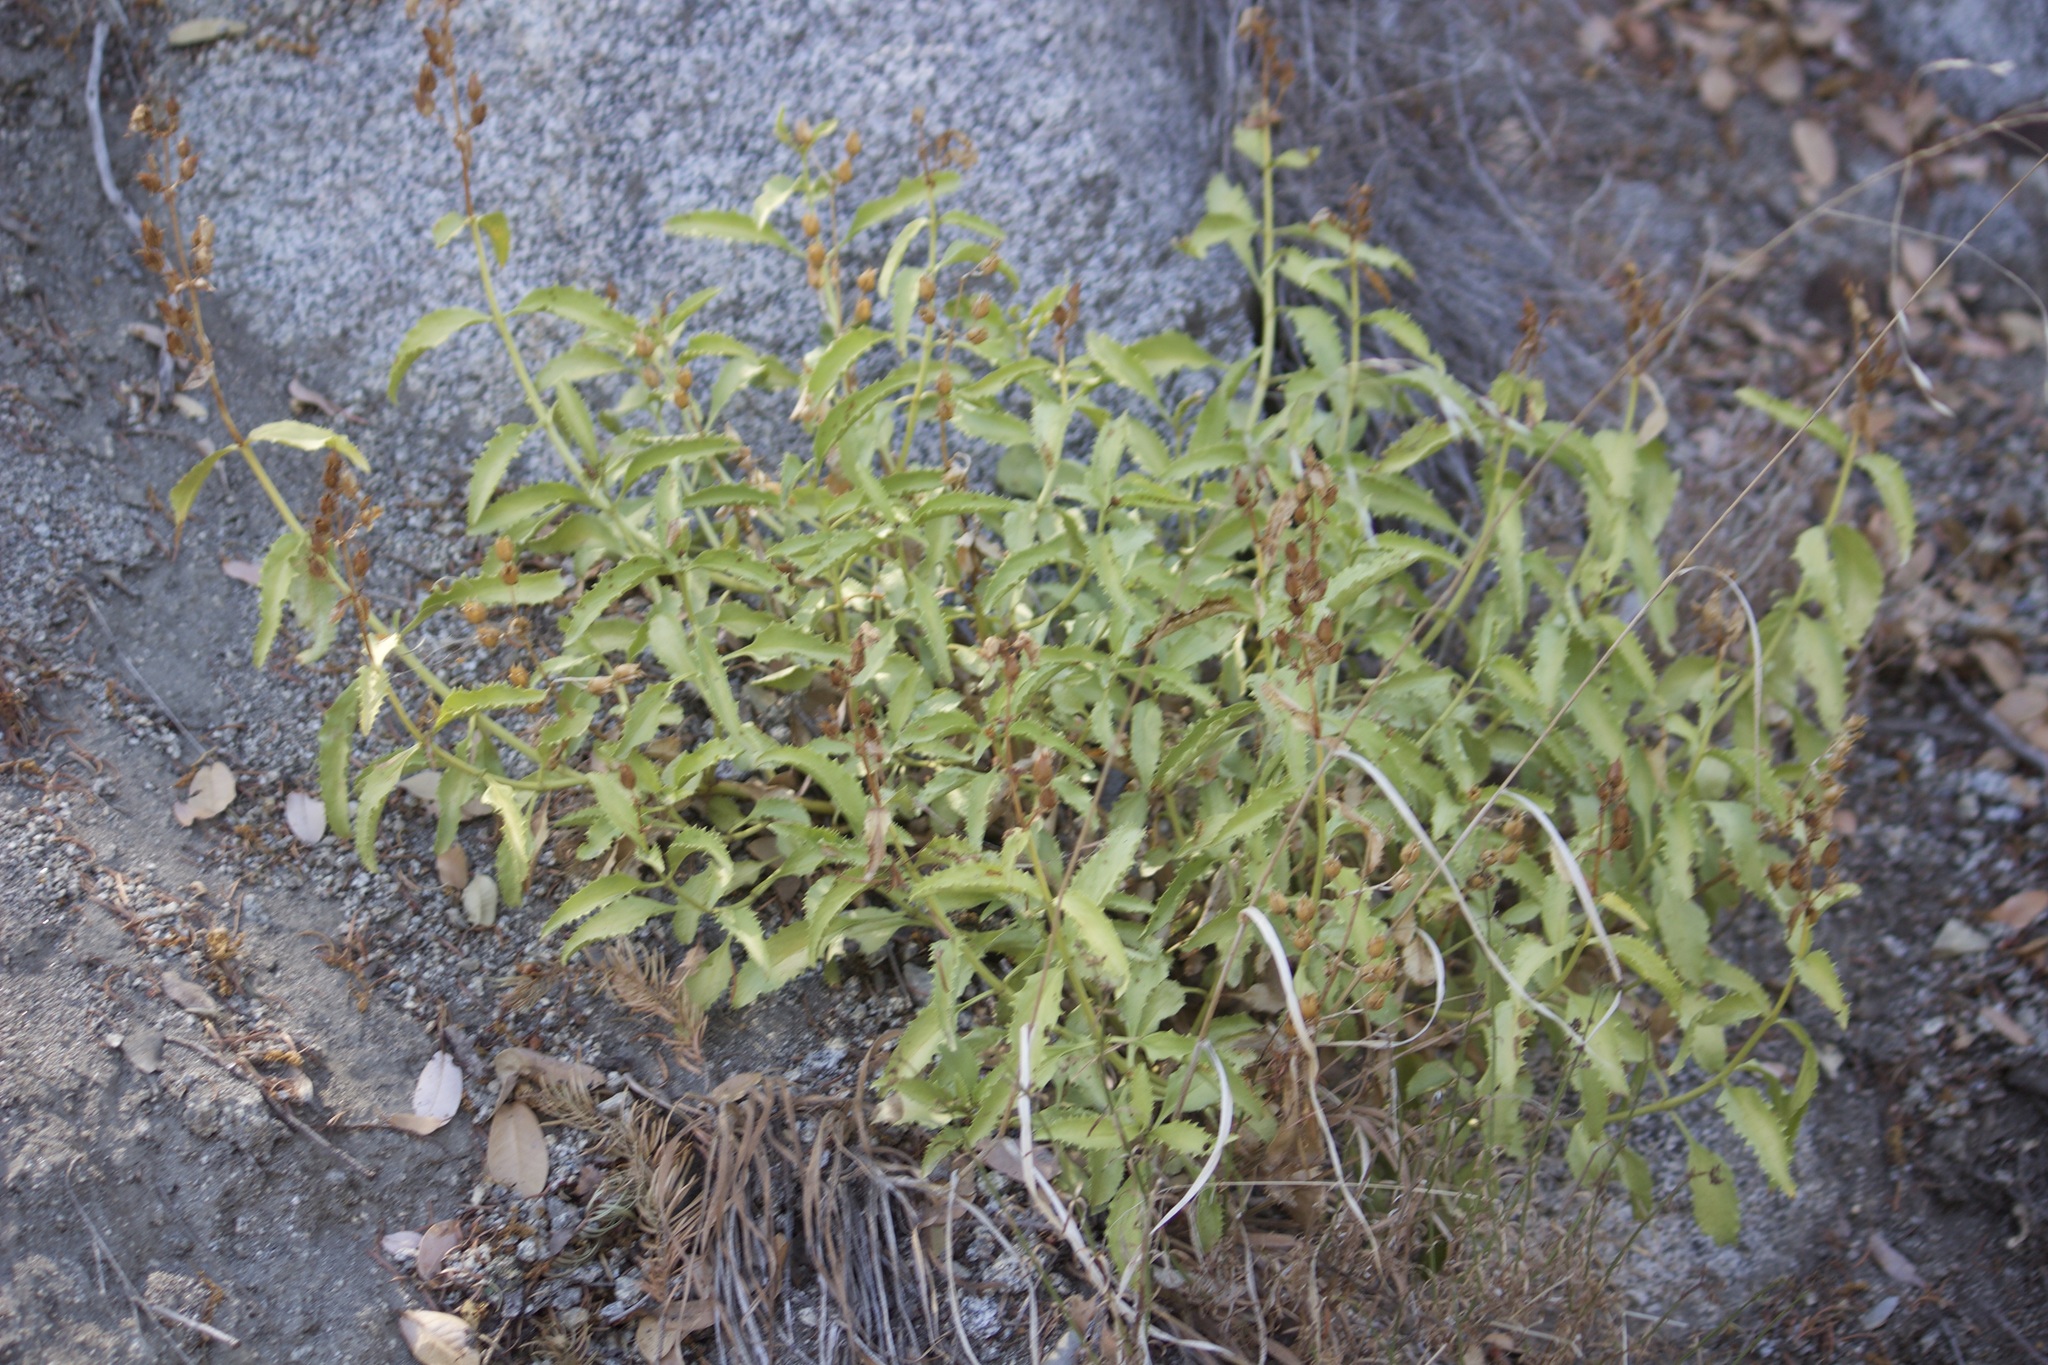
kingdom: Plantae
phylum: Tracheophyta
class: Magnoliopsida
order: Lamiales
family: Plantaginaceae
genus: Penstemon
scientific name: Penstemon grinnellii
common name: Grinnell's beardtongue
